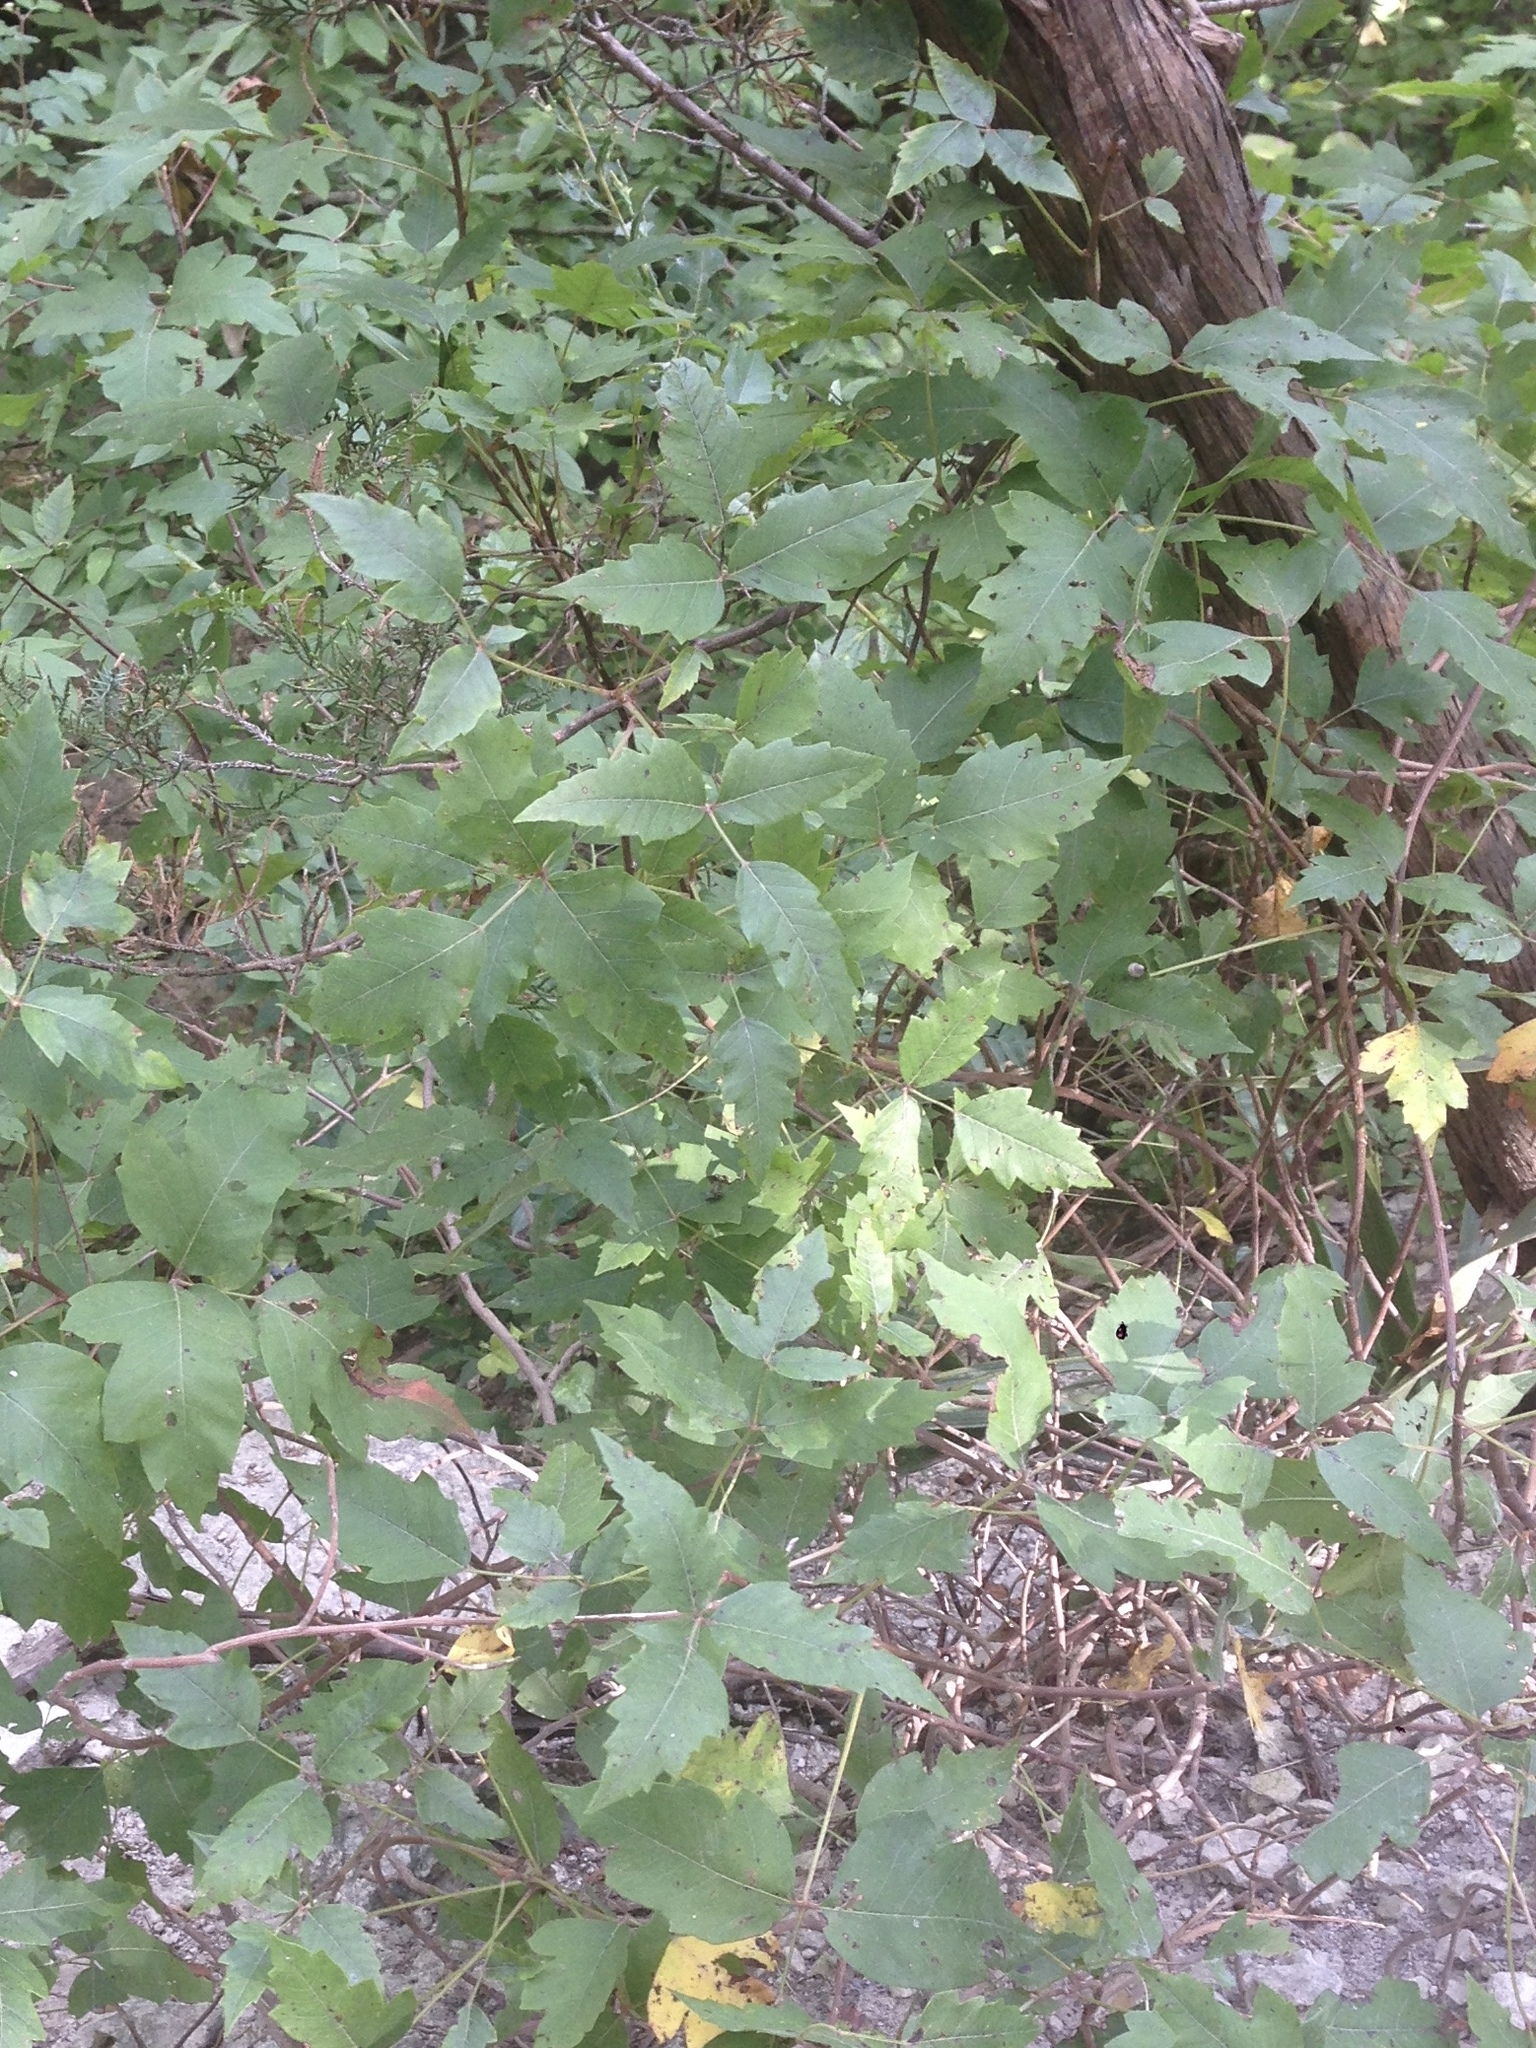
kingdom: Plantae
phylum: Tracheophyta
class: Magnoliopsida
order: Sapindales
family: Anacardiaceae
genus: Toxicodendron
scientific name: Toxicodendron radicans
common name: Poison ivy
